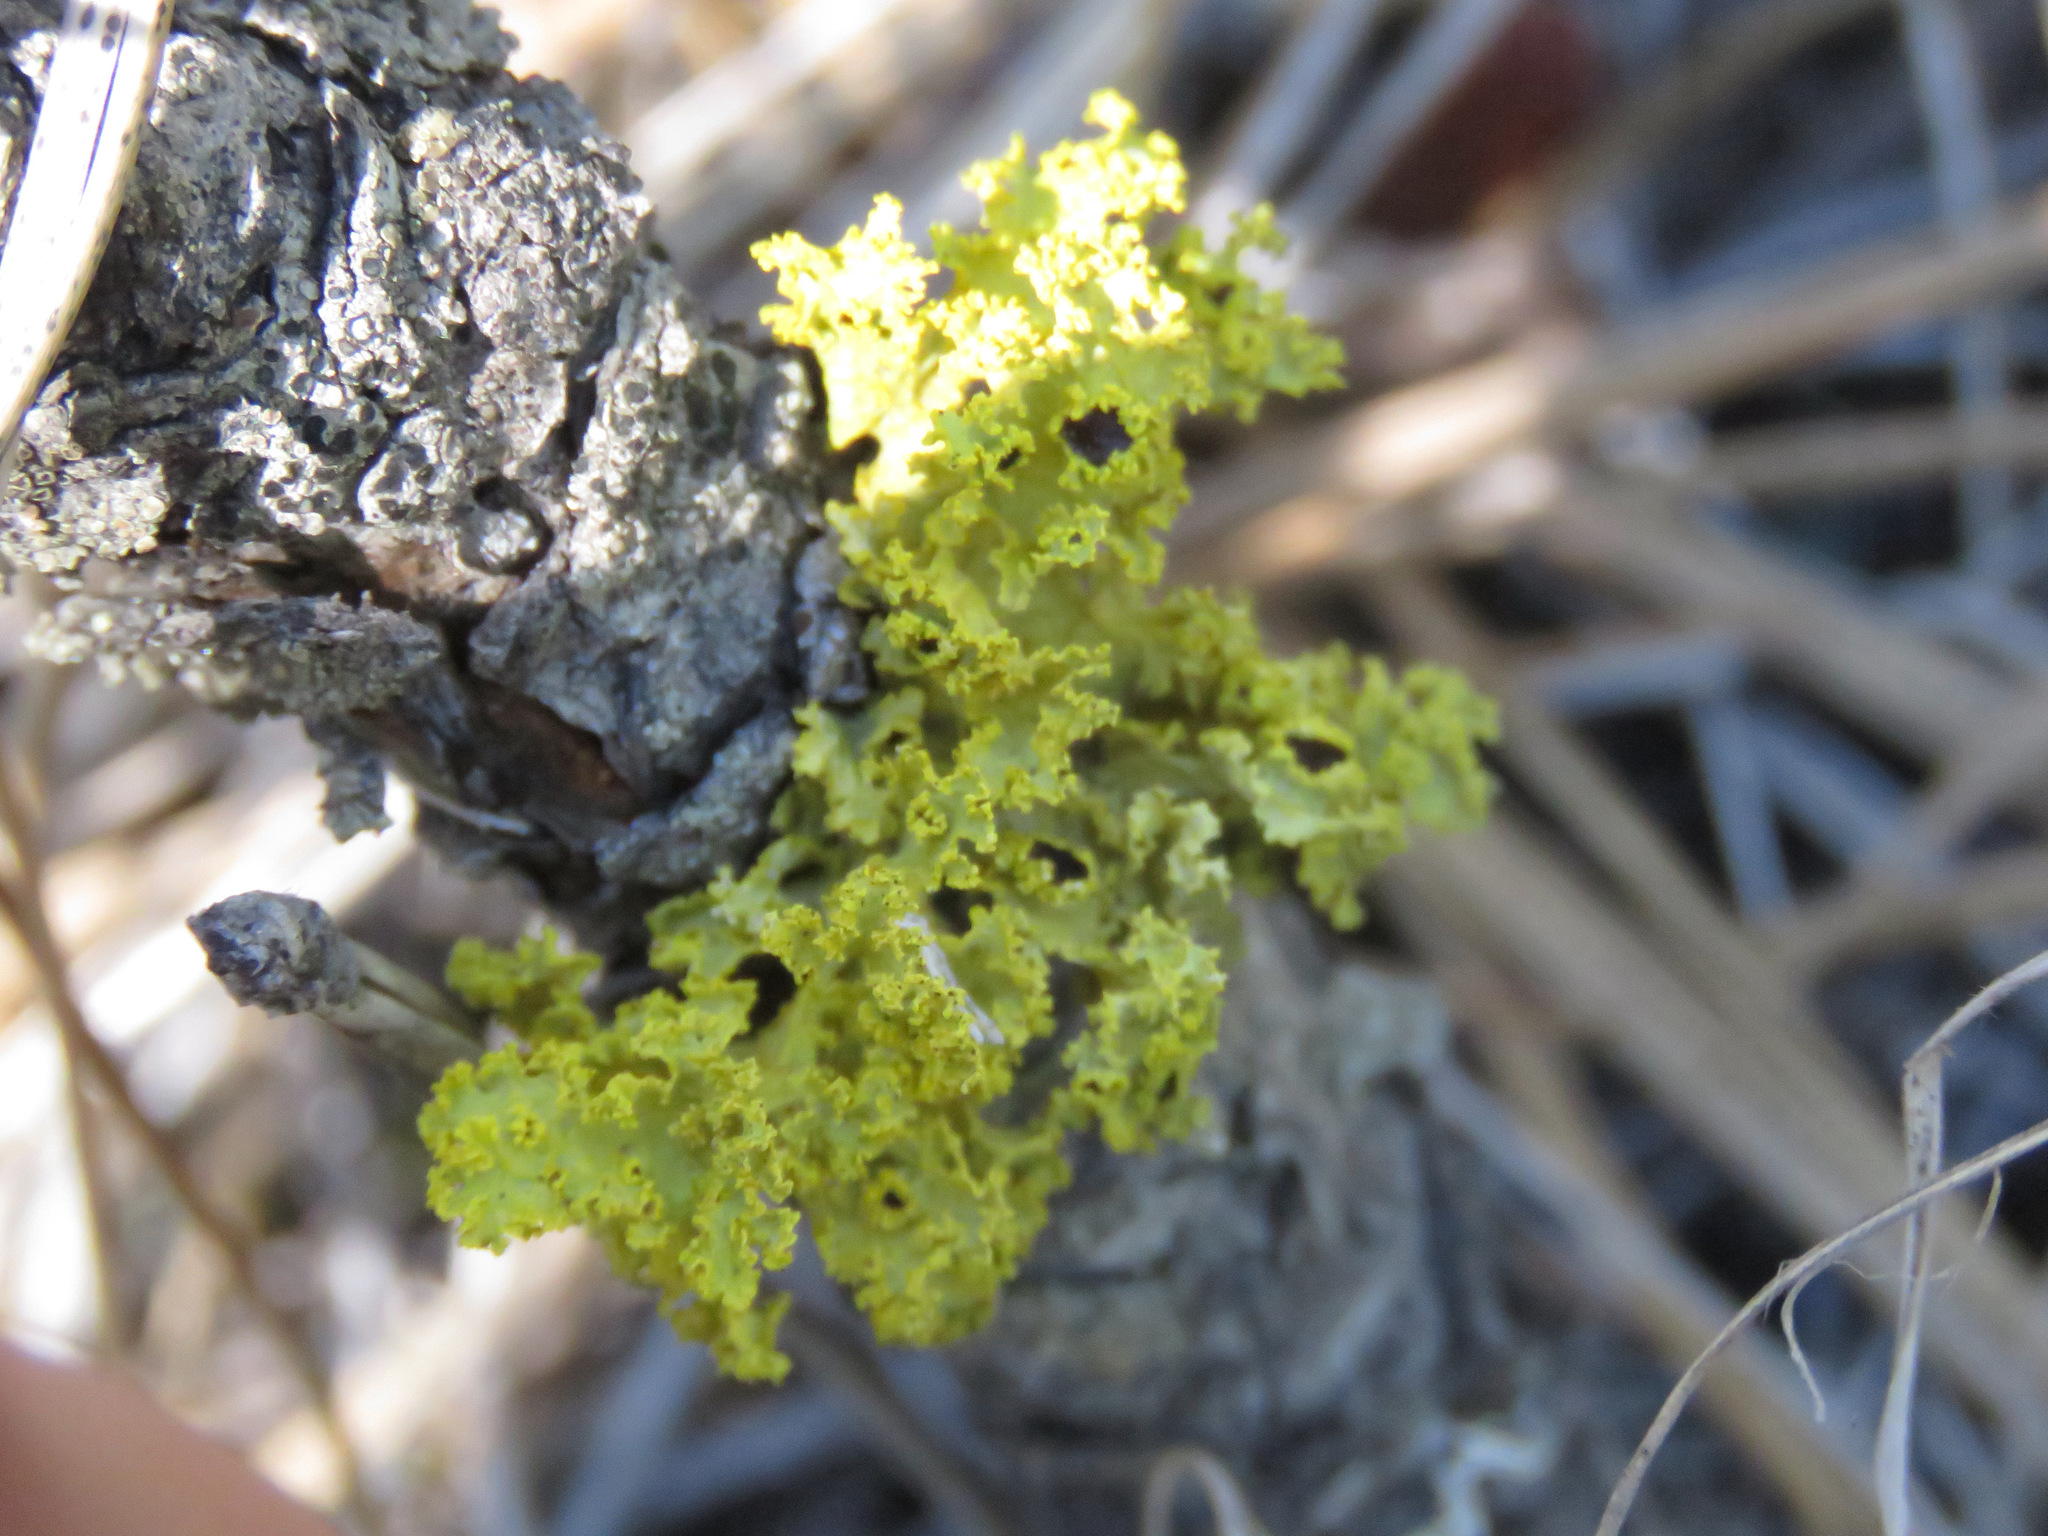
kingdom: Fungi
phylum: Ascomycota
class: Lecanoromycetes
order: Lecanorales
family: Parmeliaceae
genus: Vulpicida
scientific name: Vulpicida canadensis
